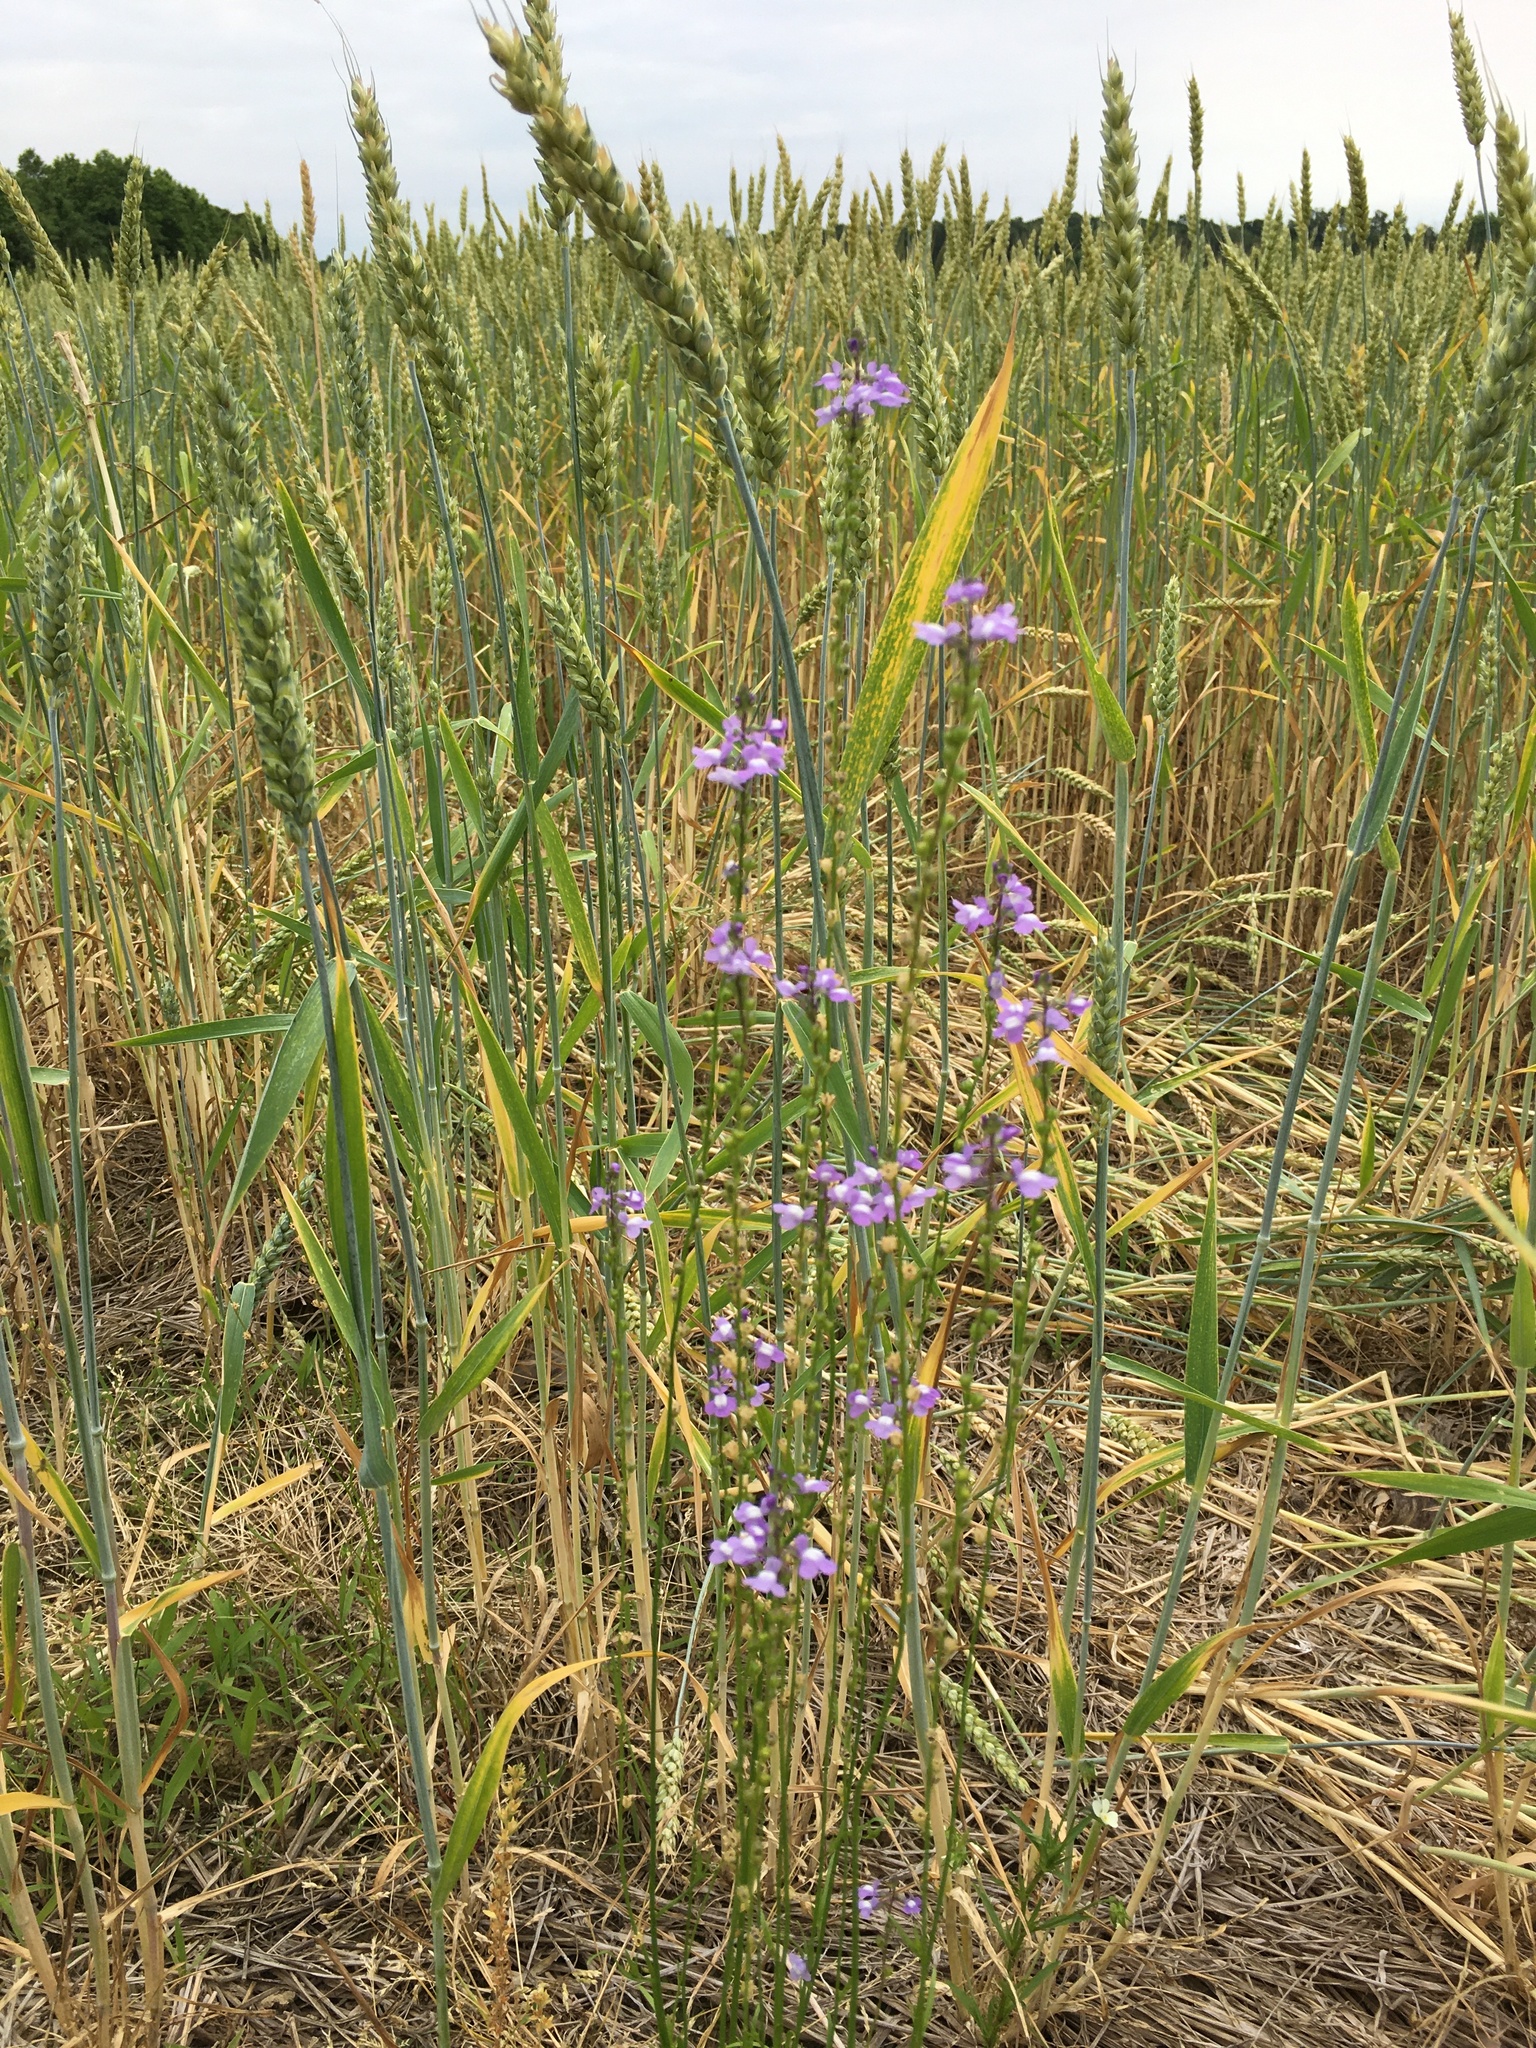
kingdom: Plantae
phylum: Tracheophyta
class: Magnoliopsida
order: Lamiales
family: Plantaginaceae
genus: Nuttallanthus
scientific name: Nuttallanthus canadensis
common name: Blue toadflax
